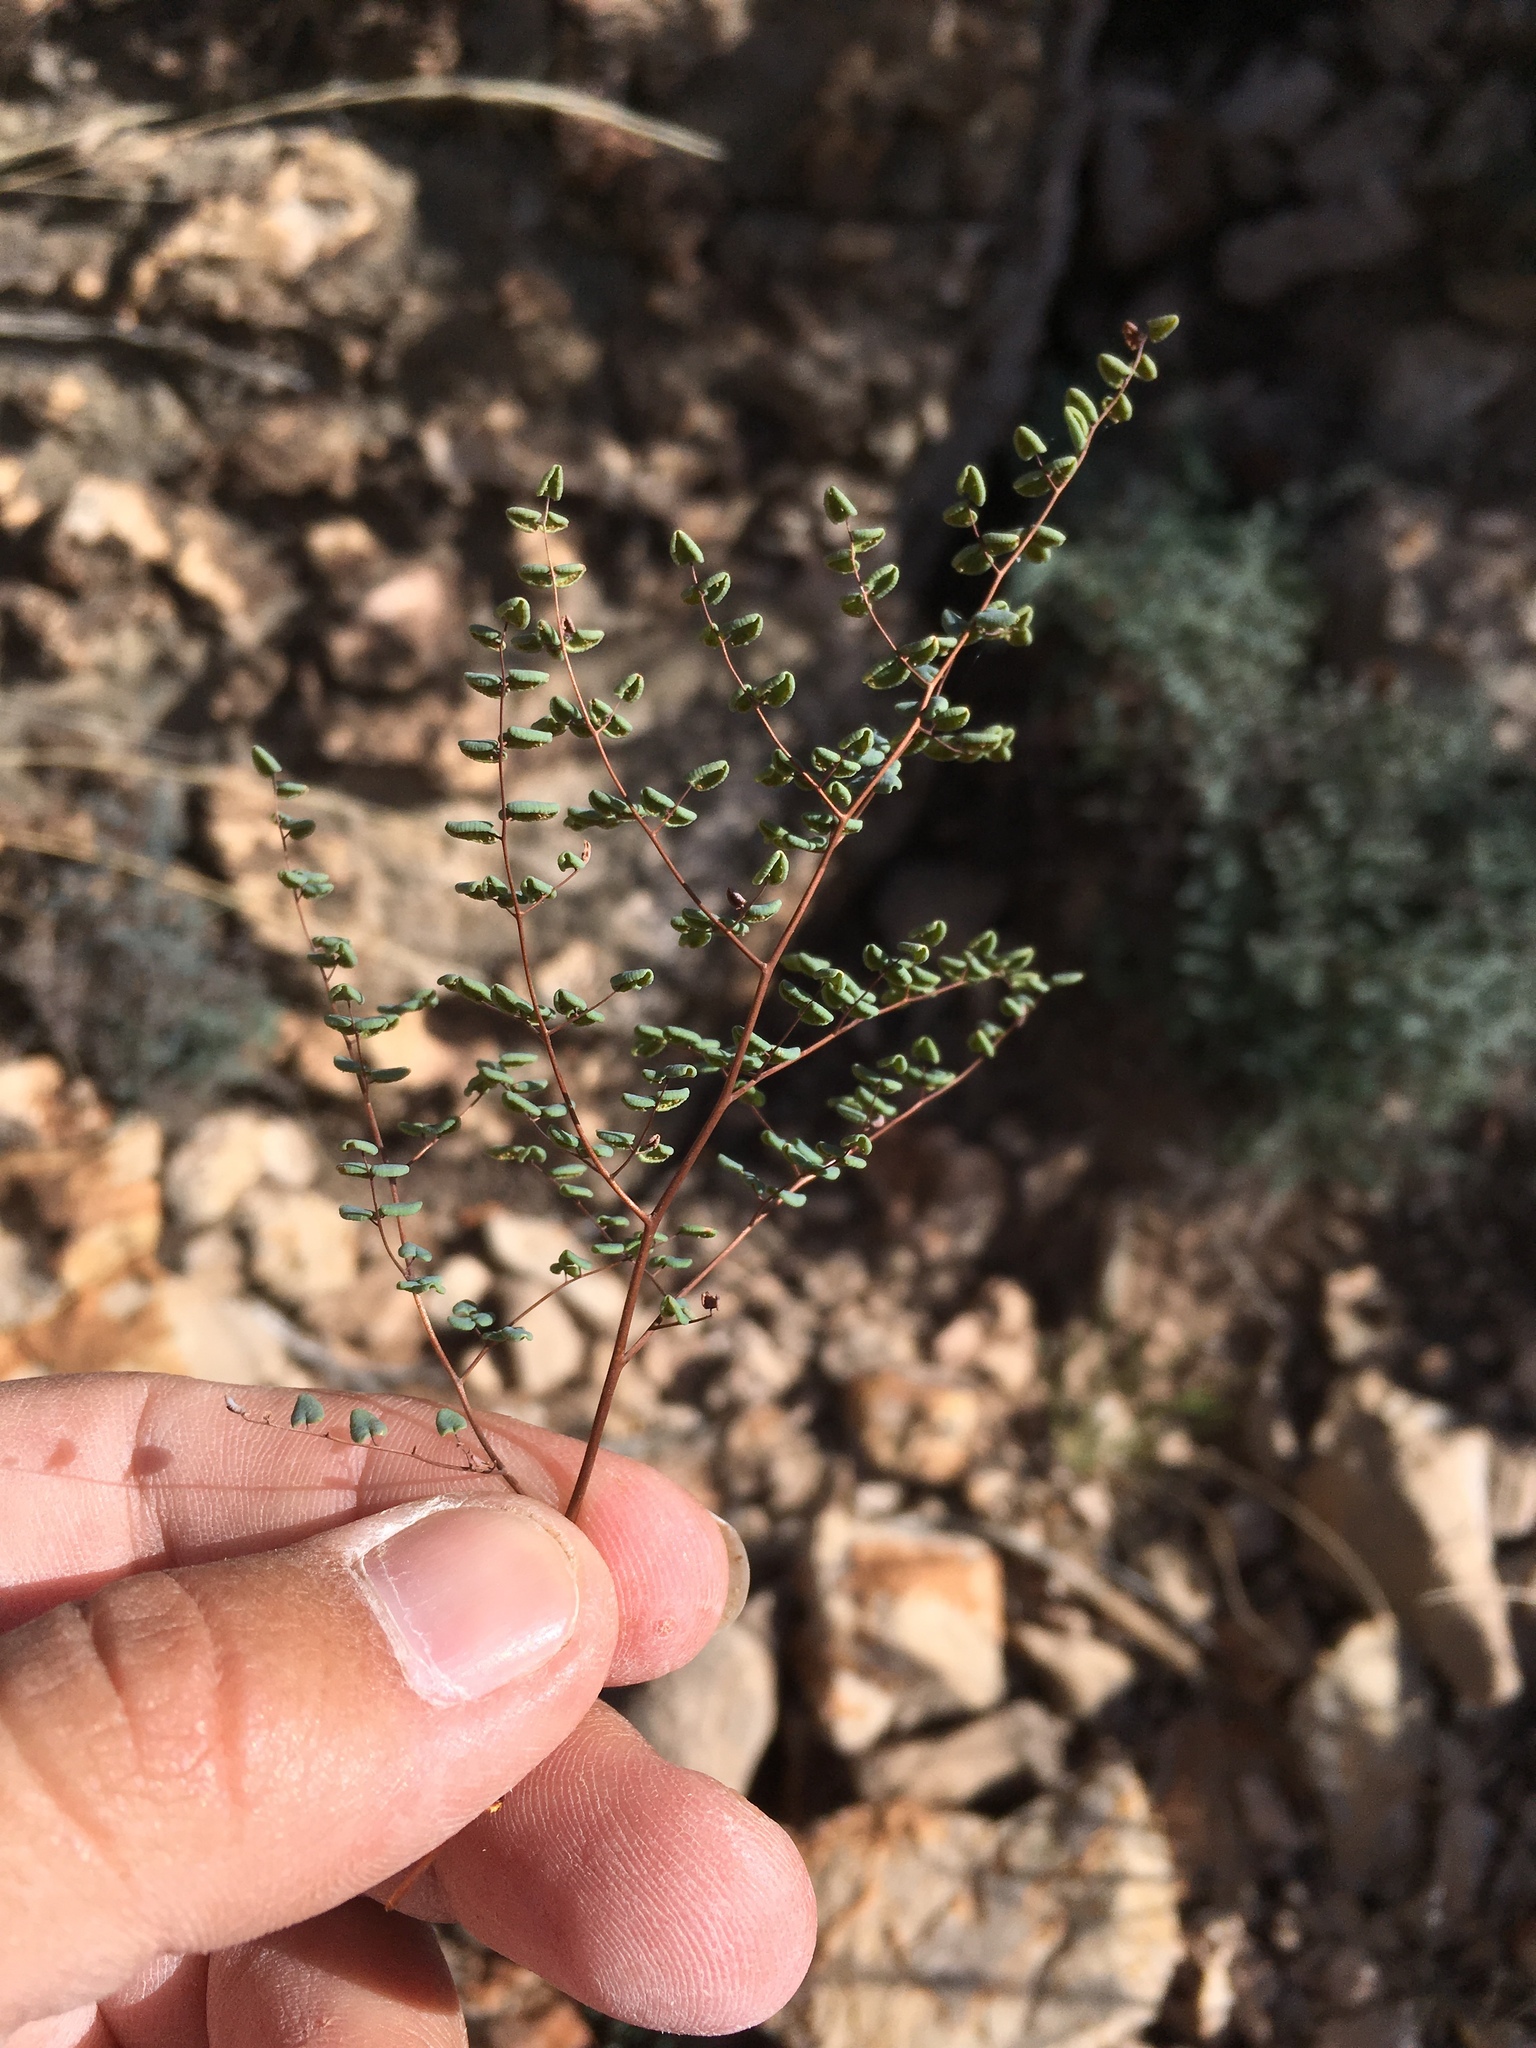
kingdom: Plantae
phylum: Tracheophyta
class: Polypodiopsida
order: Polypodiales
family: Pteridaceae
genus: Argyrochosma
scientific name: Argyrochosma microphylla
